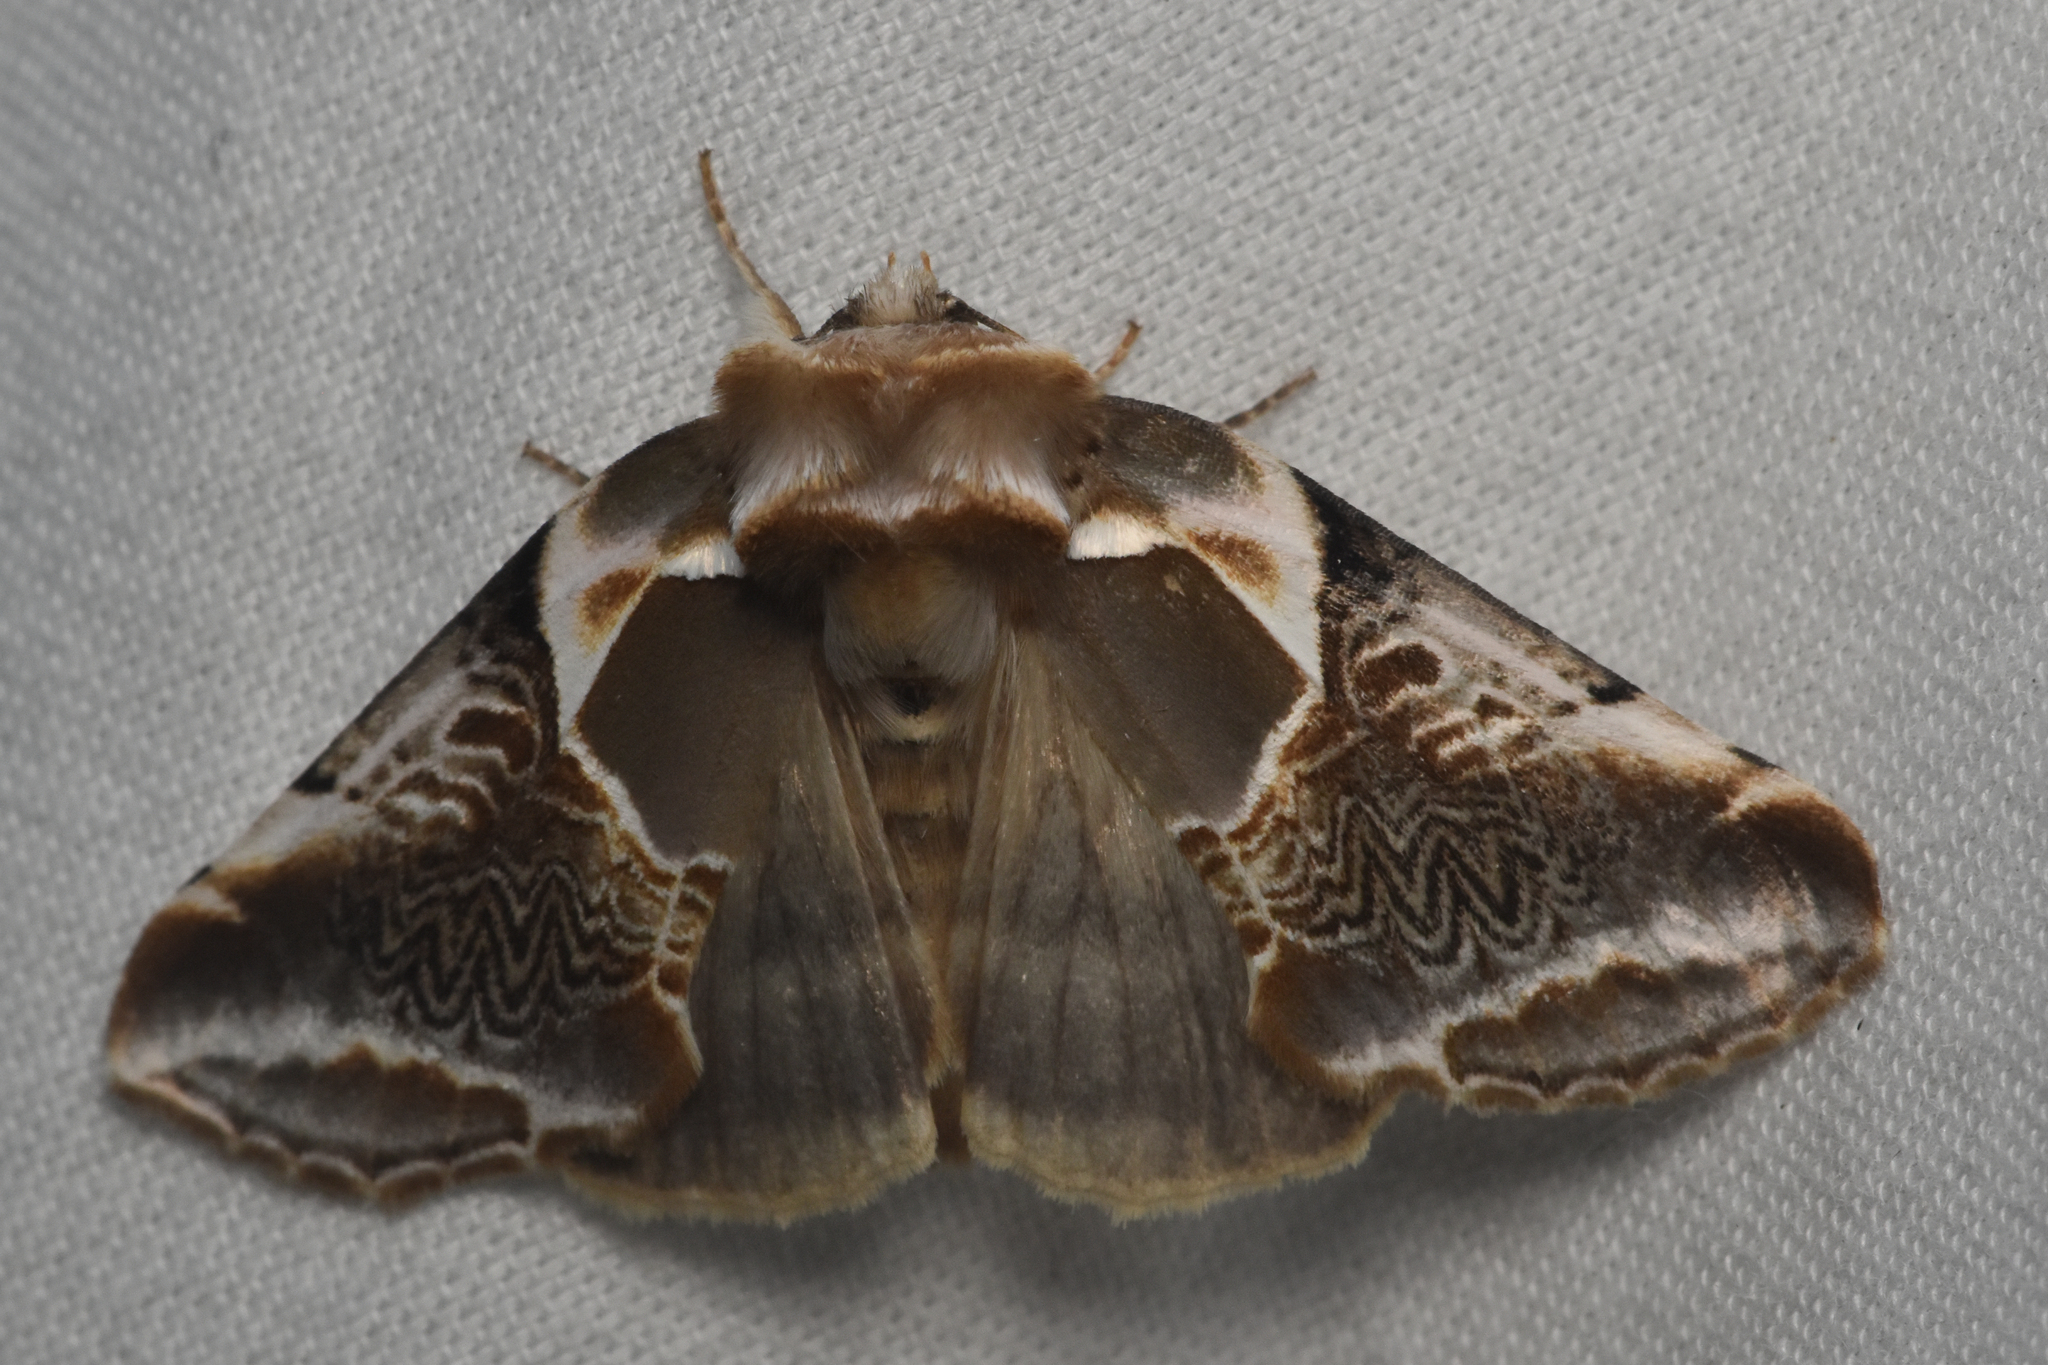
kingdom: Animalia
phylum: Arthropoda
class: Insecta
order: Lepidoptera
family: Drepanidae
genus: Habrosyne
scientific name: Habrosyne scripta
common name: Lettered habrosyne moth
